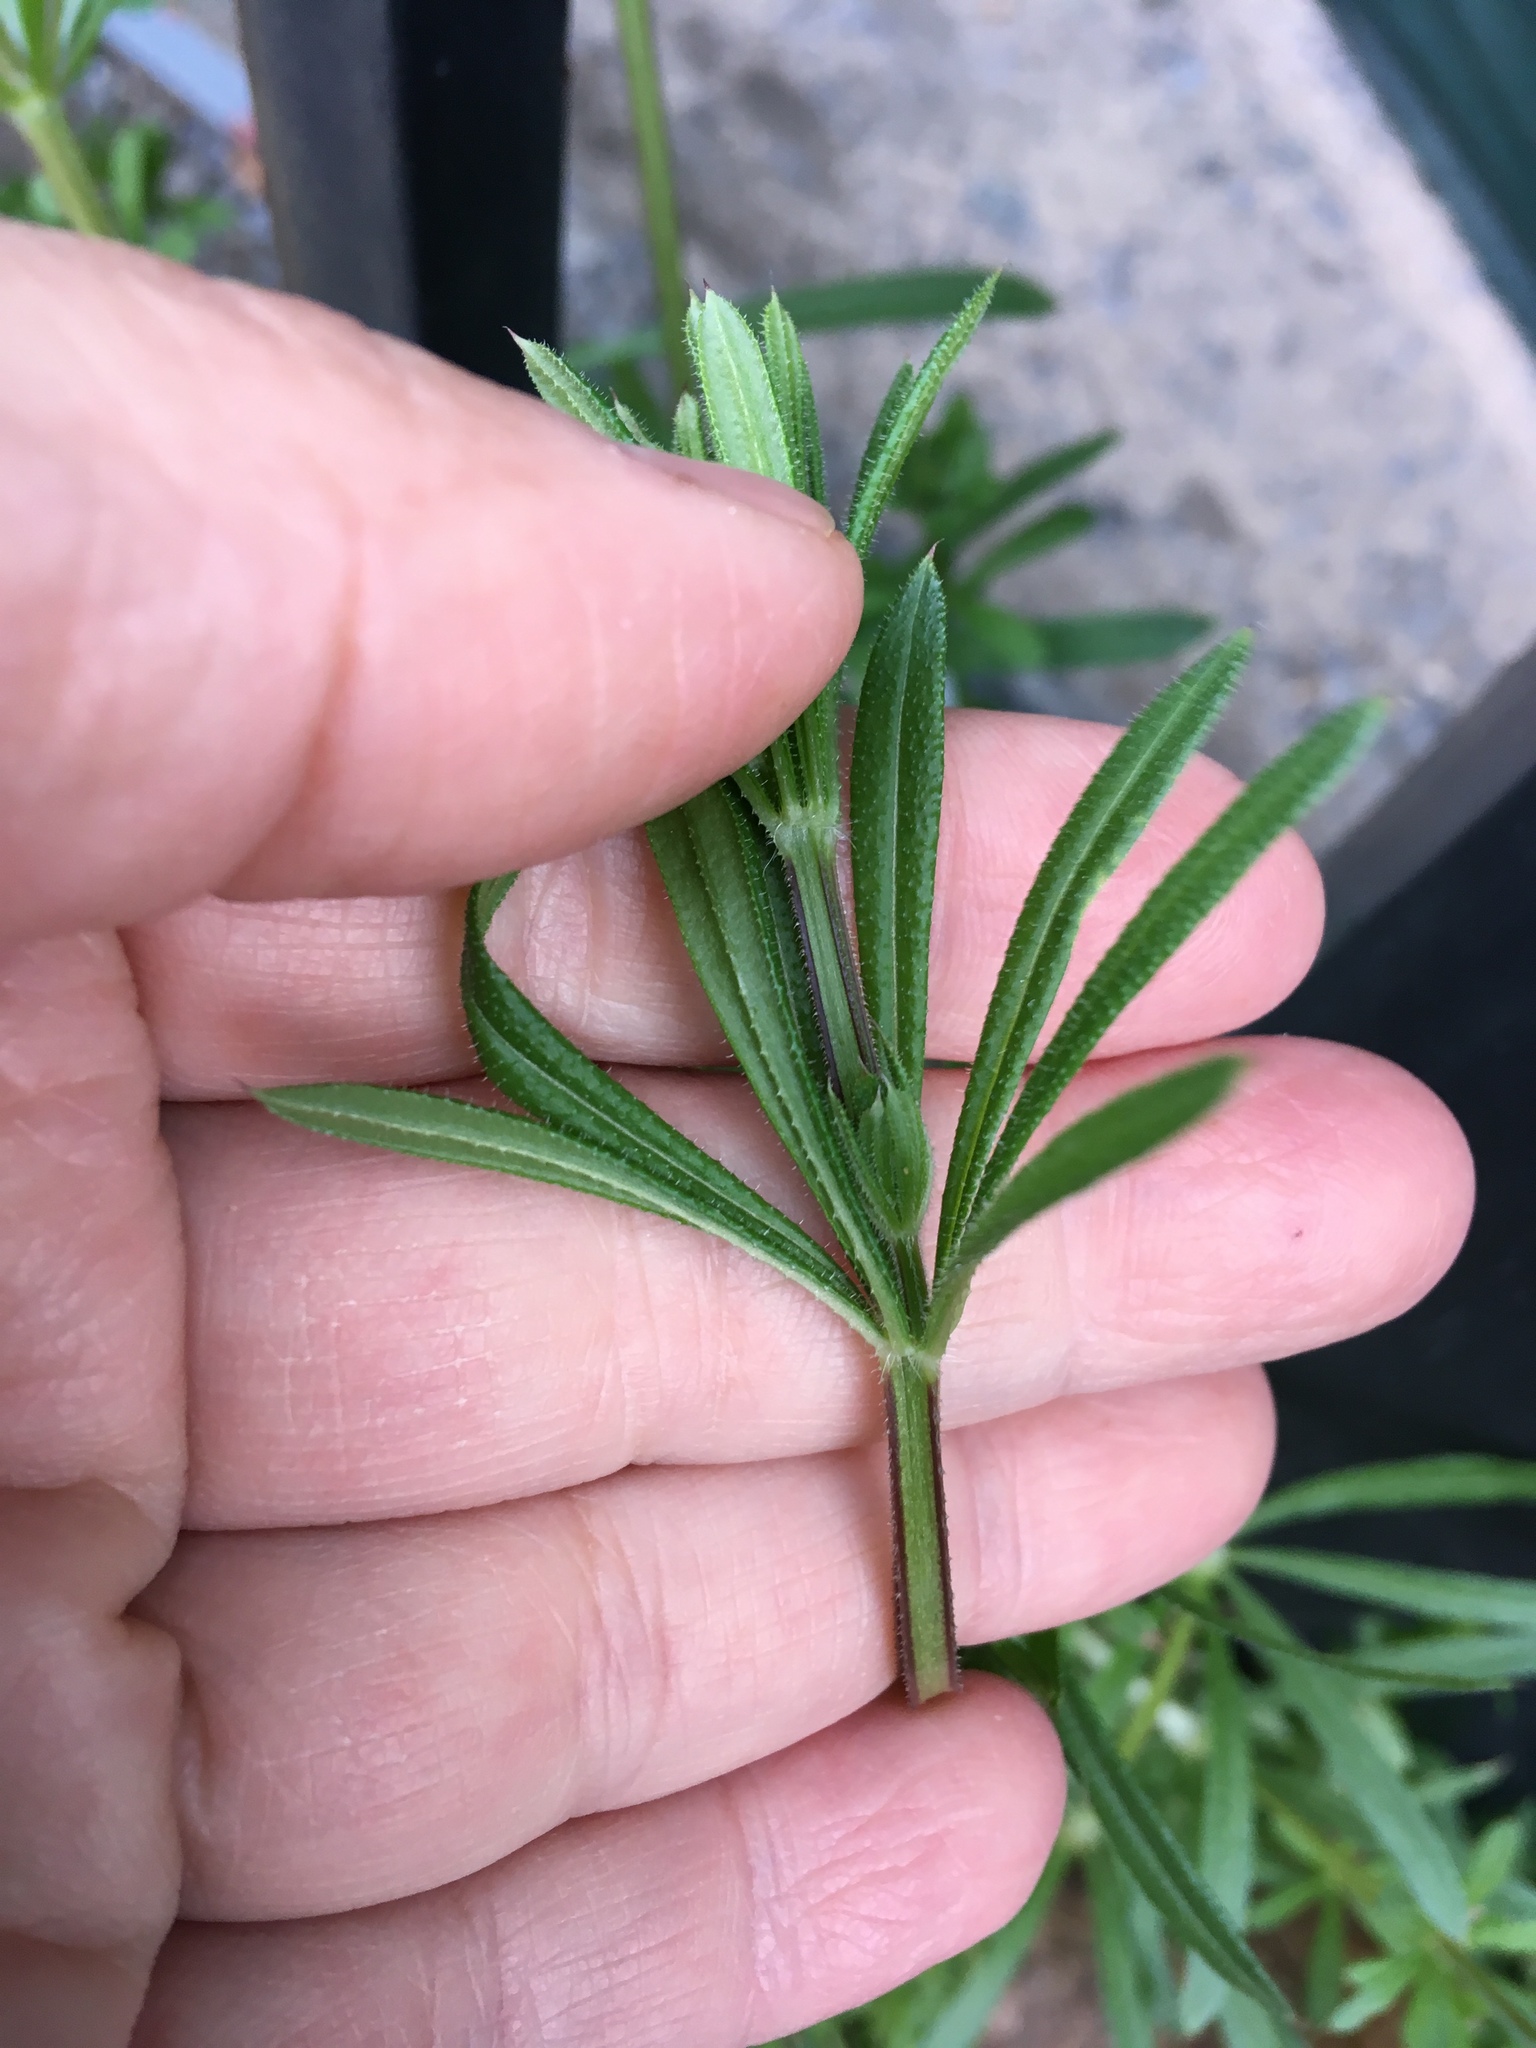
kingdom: Plantae
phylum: Tracheophyta
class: Magnoliopsida
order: Gentianales
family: Rubiaceae
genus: Galium
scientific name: Galium aparine
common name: Cleavers
